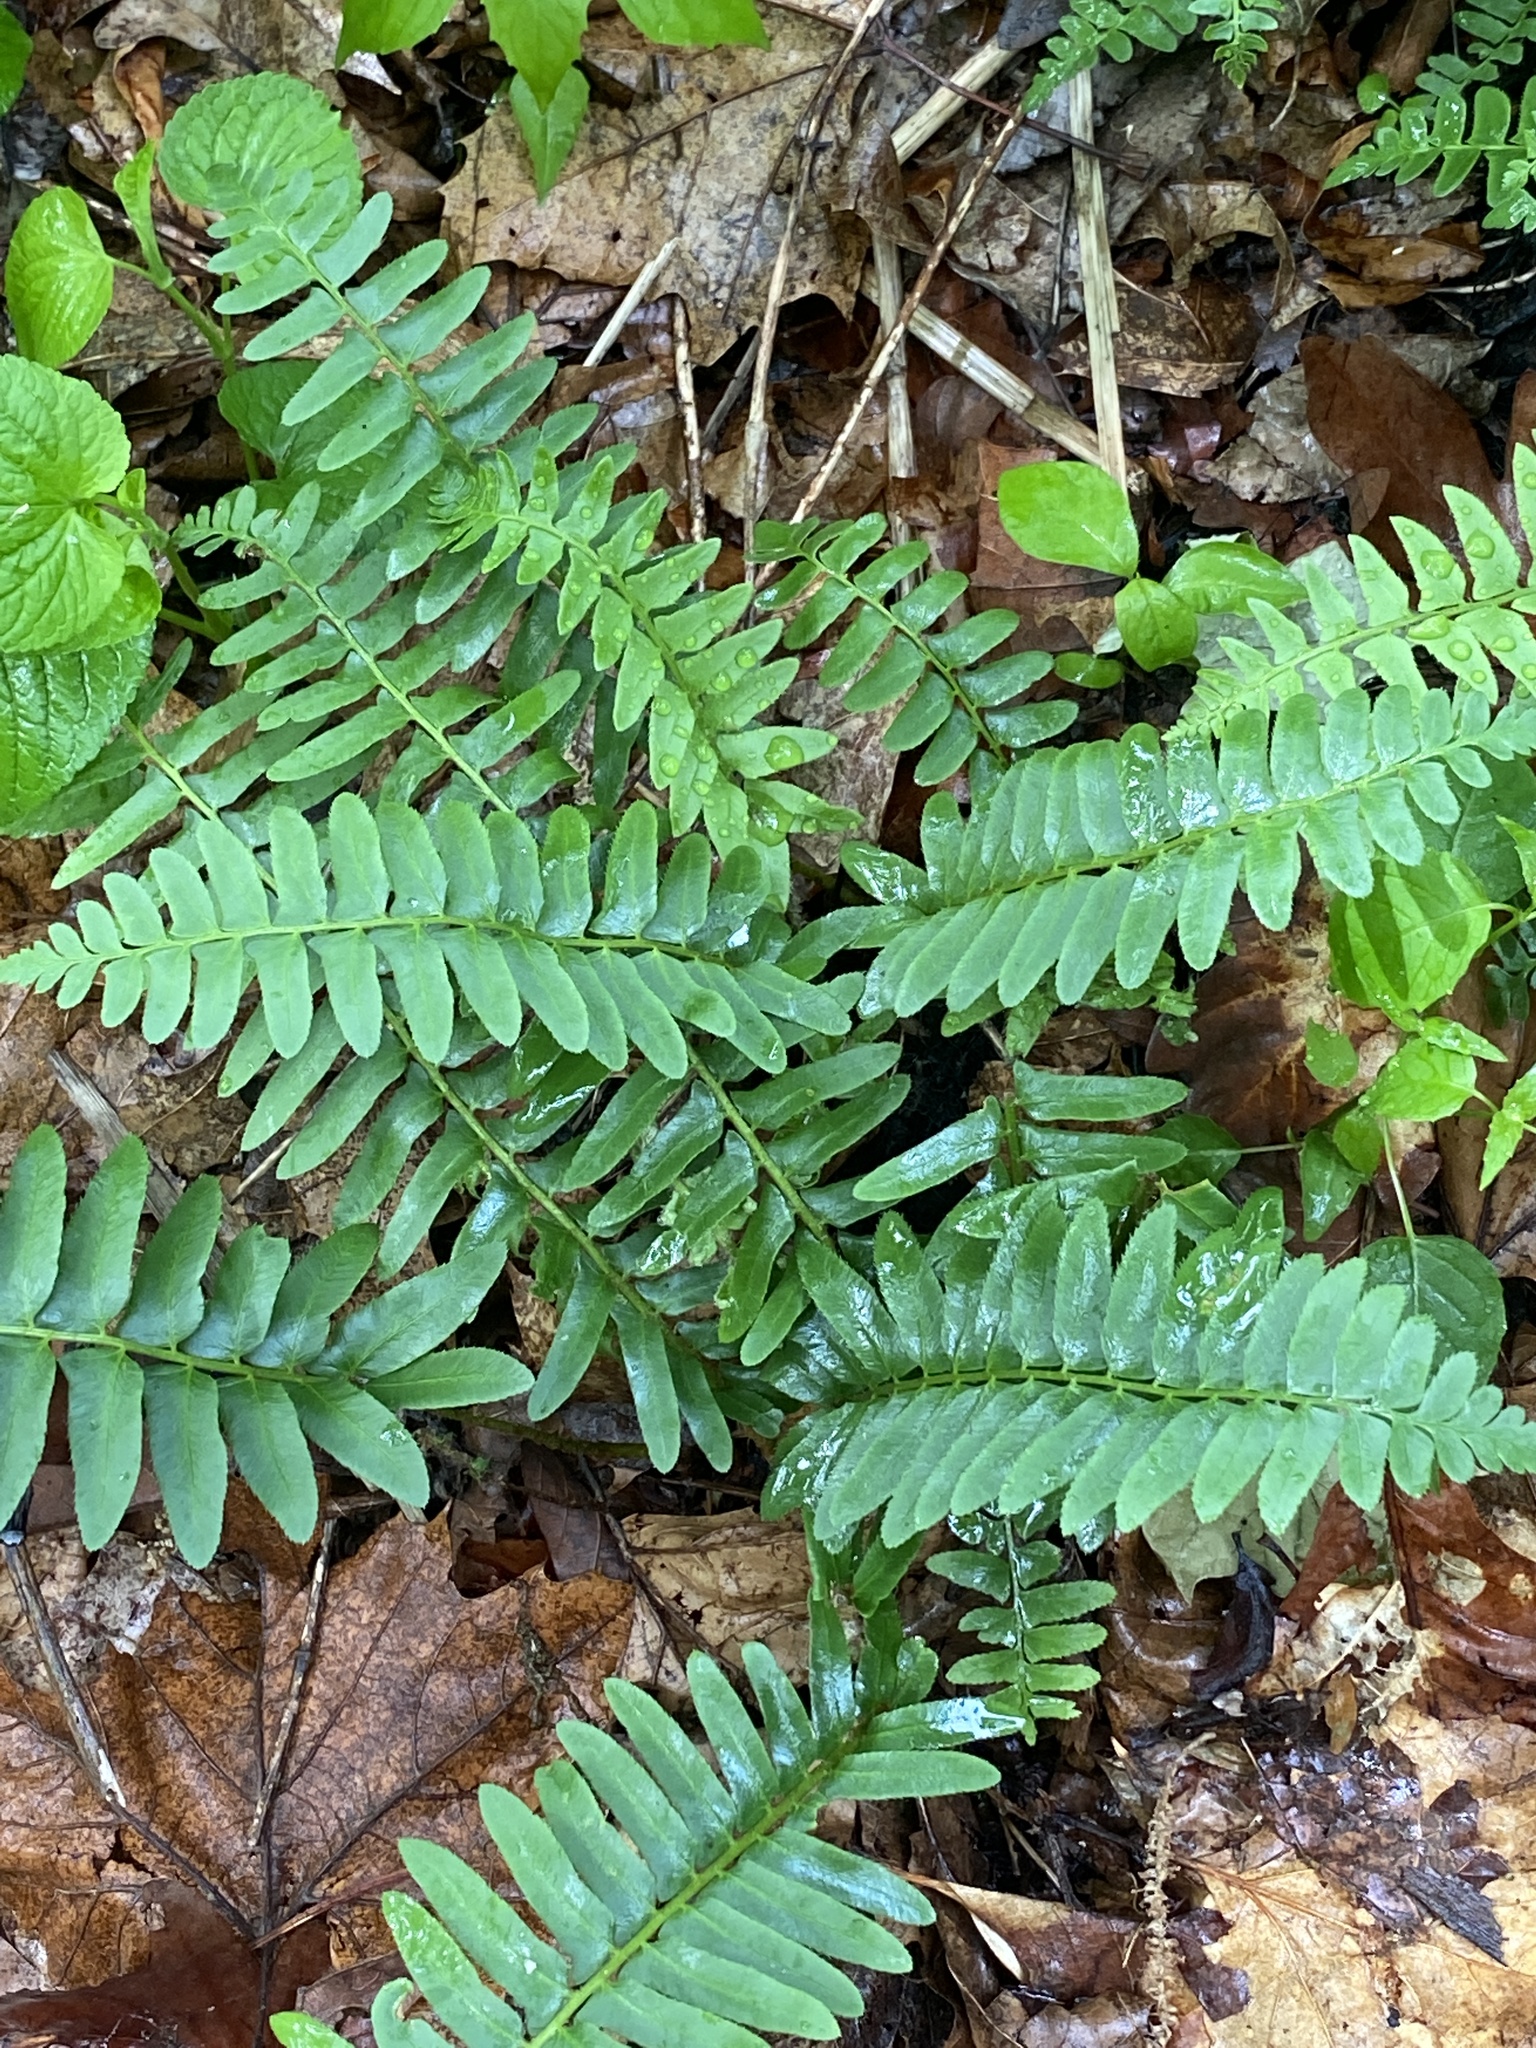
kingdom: Plantae
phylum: Tracheophyta
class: Polypodiopsida
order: Polypodiales
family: Dryopteridaceae
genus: Polystichum
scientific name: Polystichum acrostichoides
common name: Christmas fern
